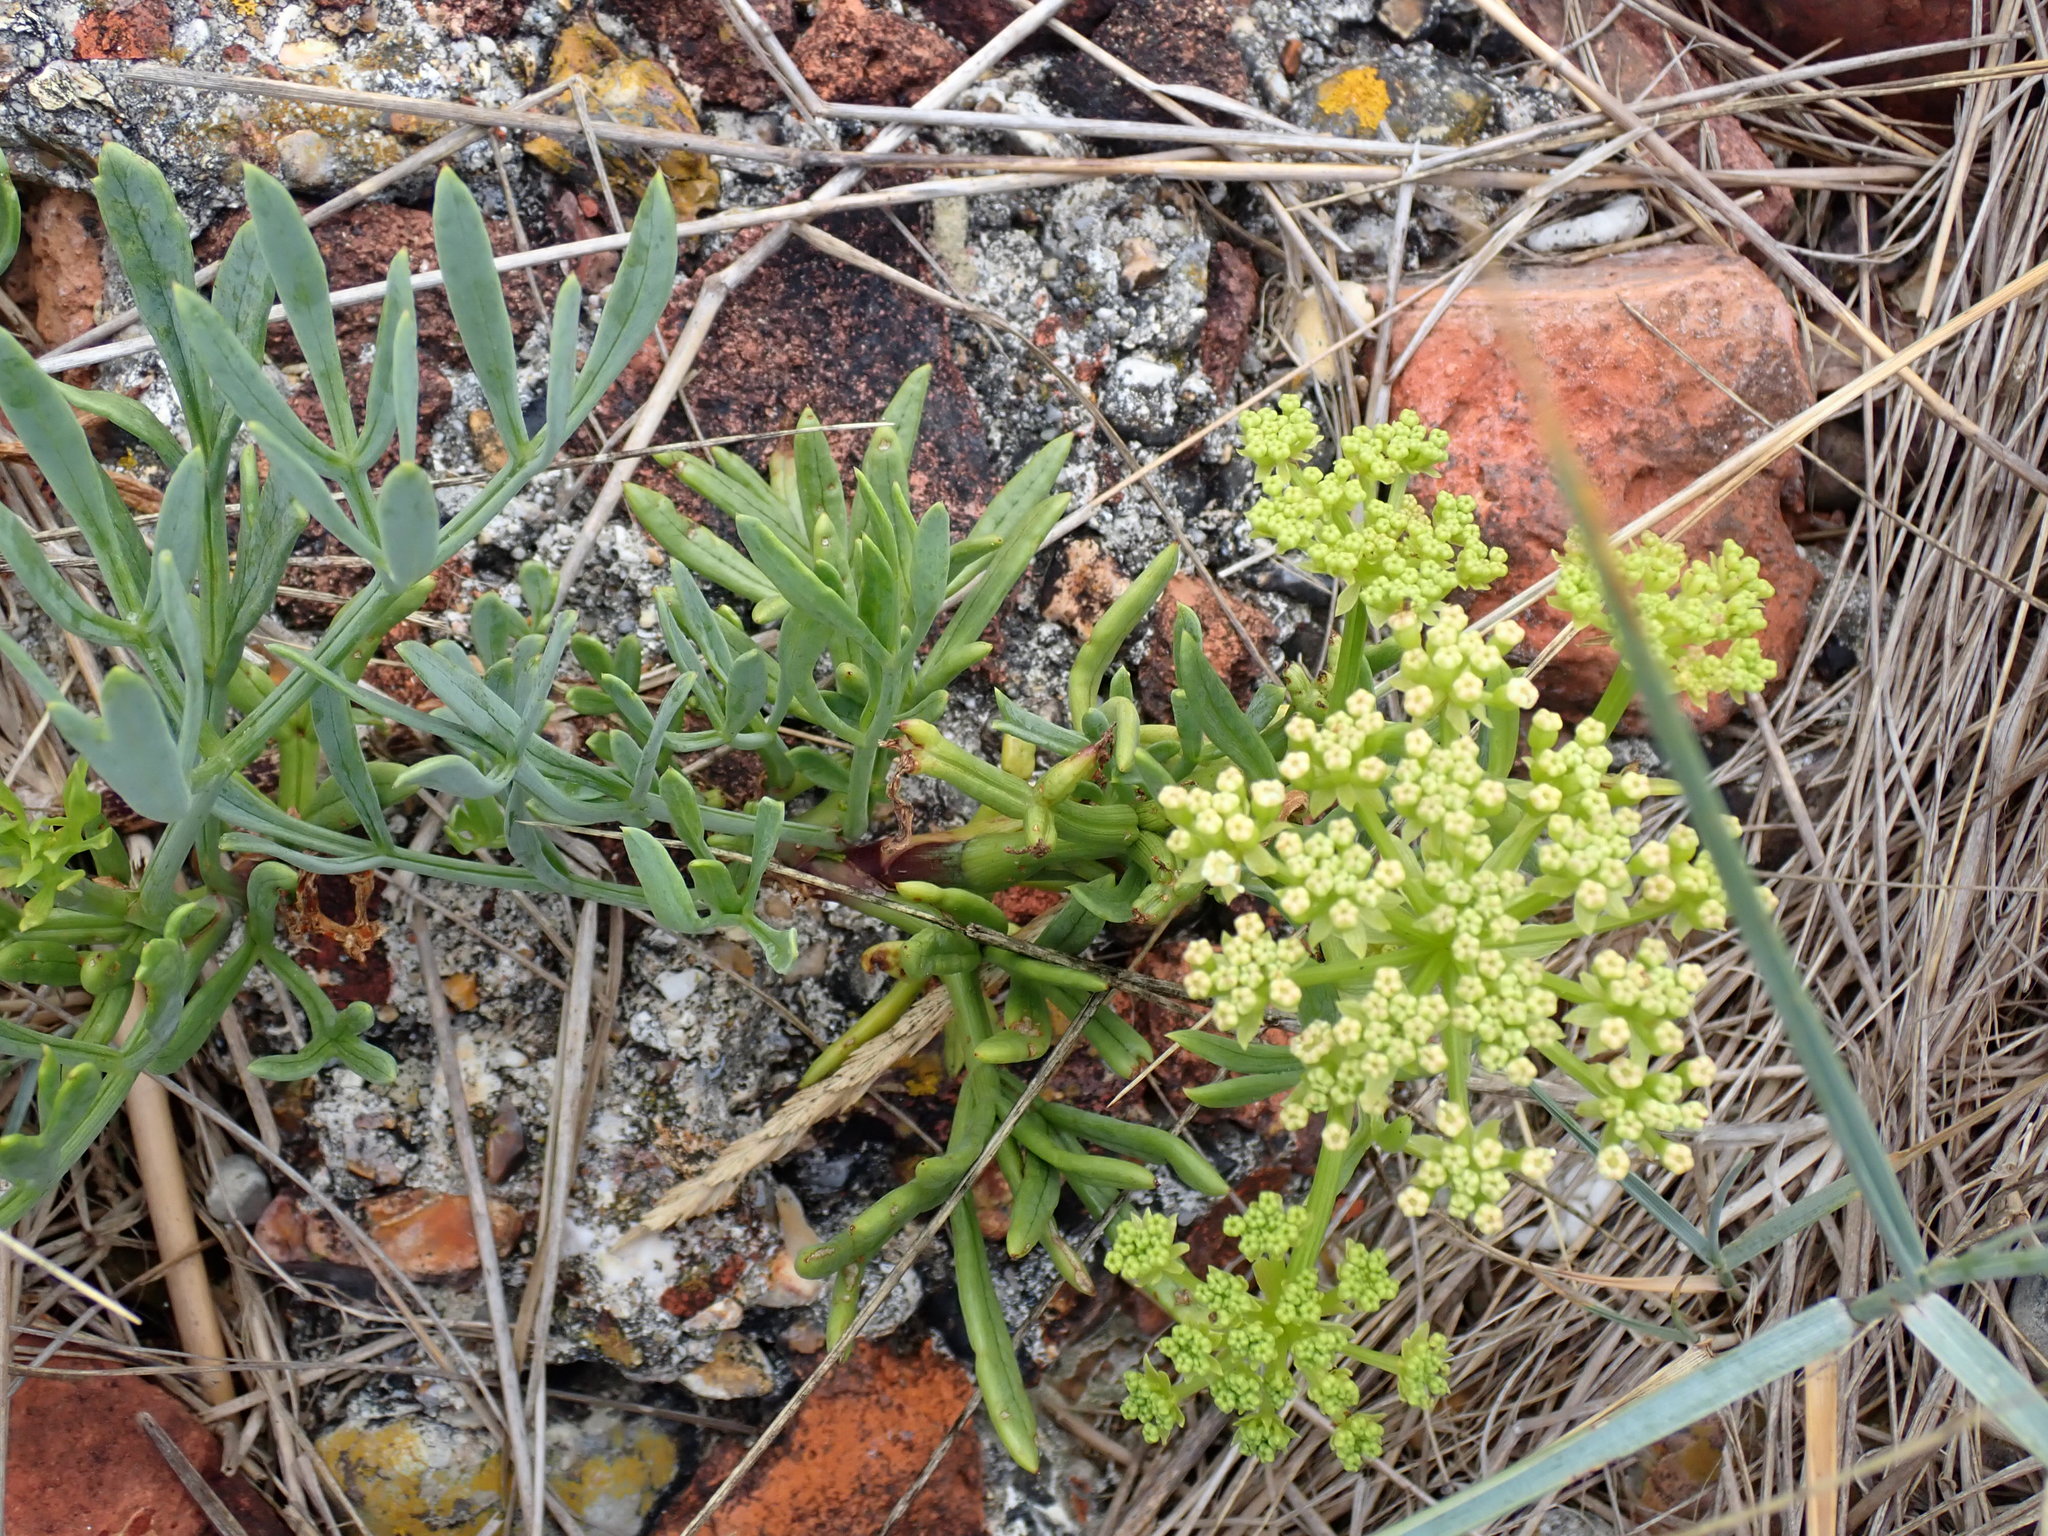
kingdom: Plantae
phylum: Tracheophyta
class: Magnoliopsida
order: Apiales
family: Apiaceae
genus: Crithmum
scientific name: Crithmum maritimum
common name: Rock samphire
